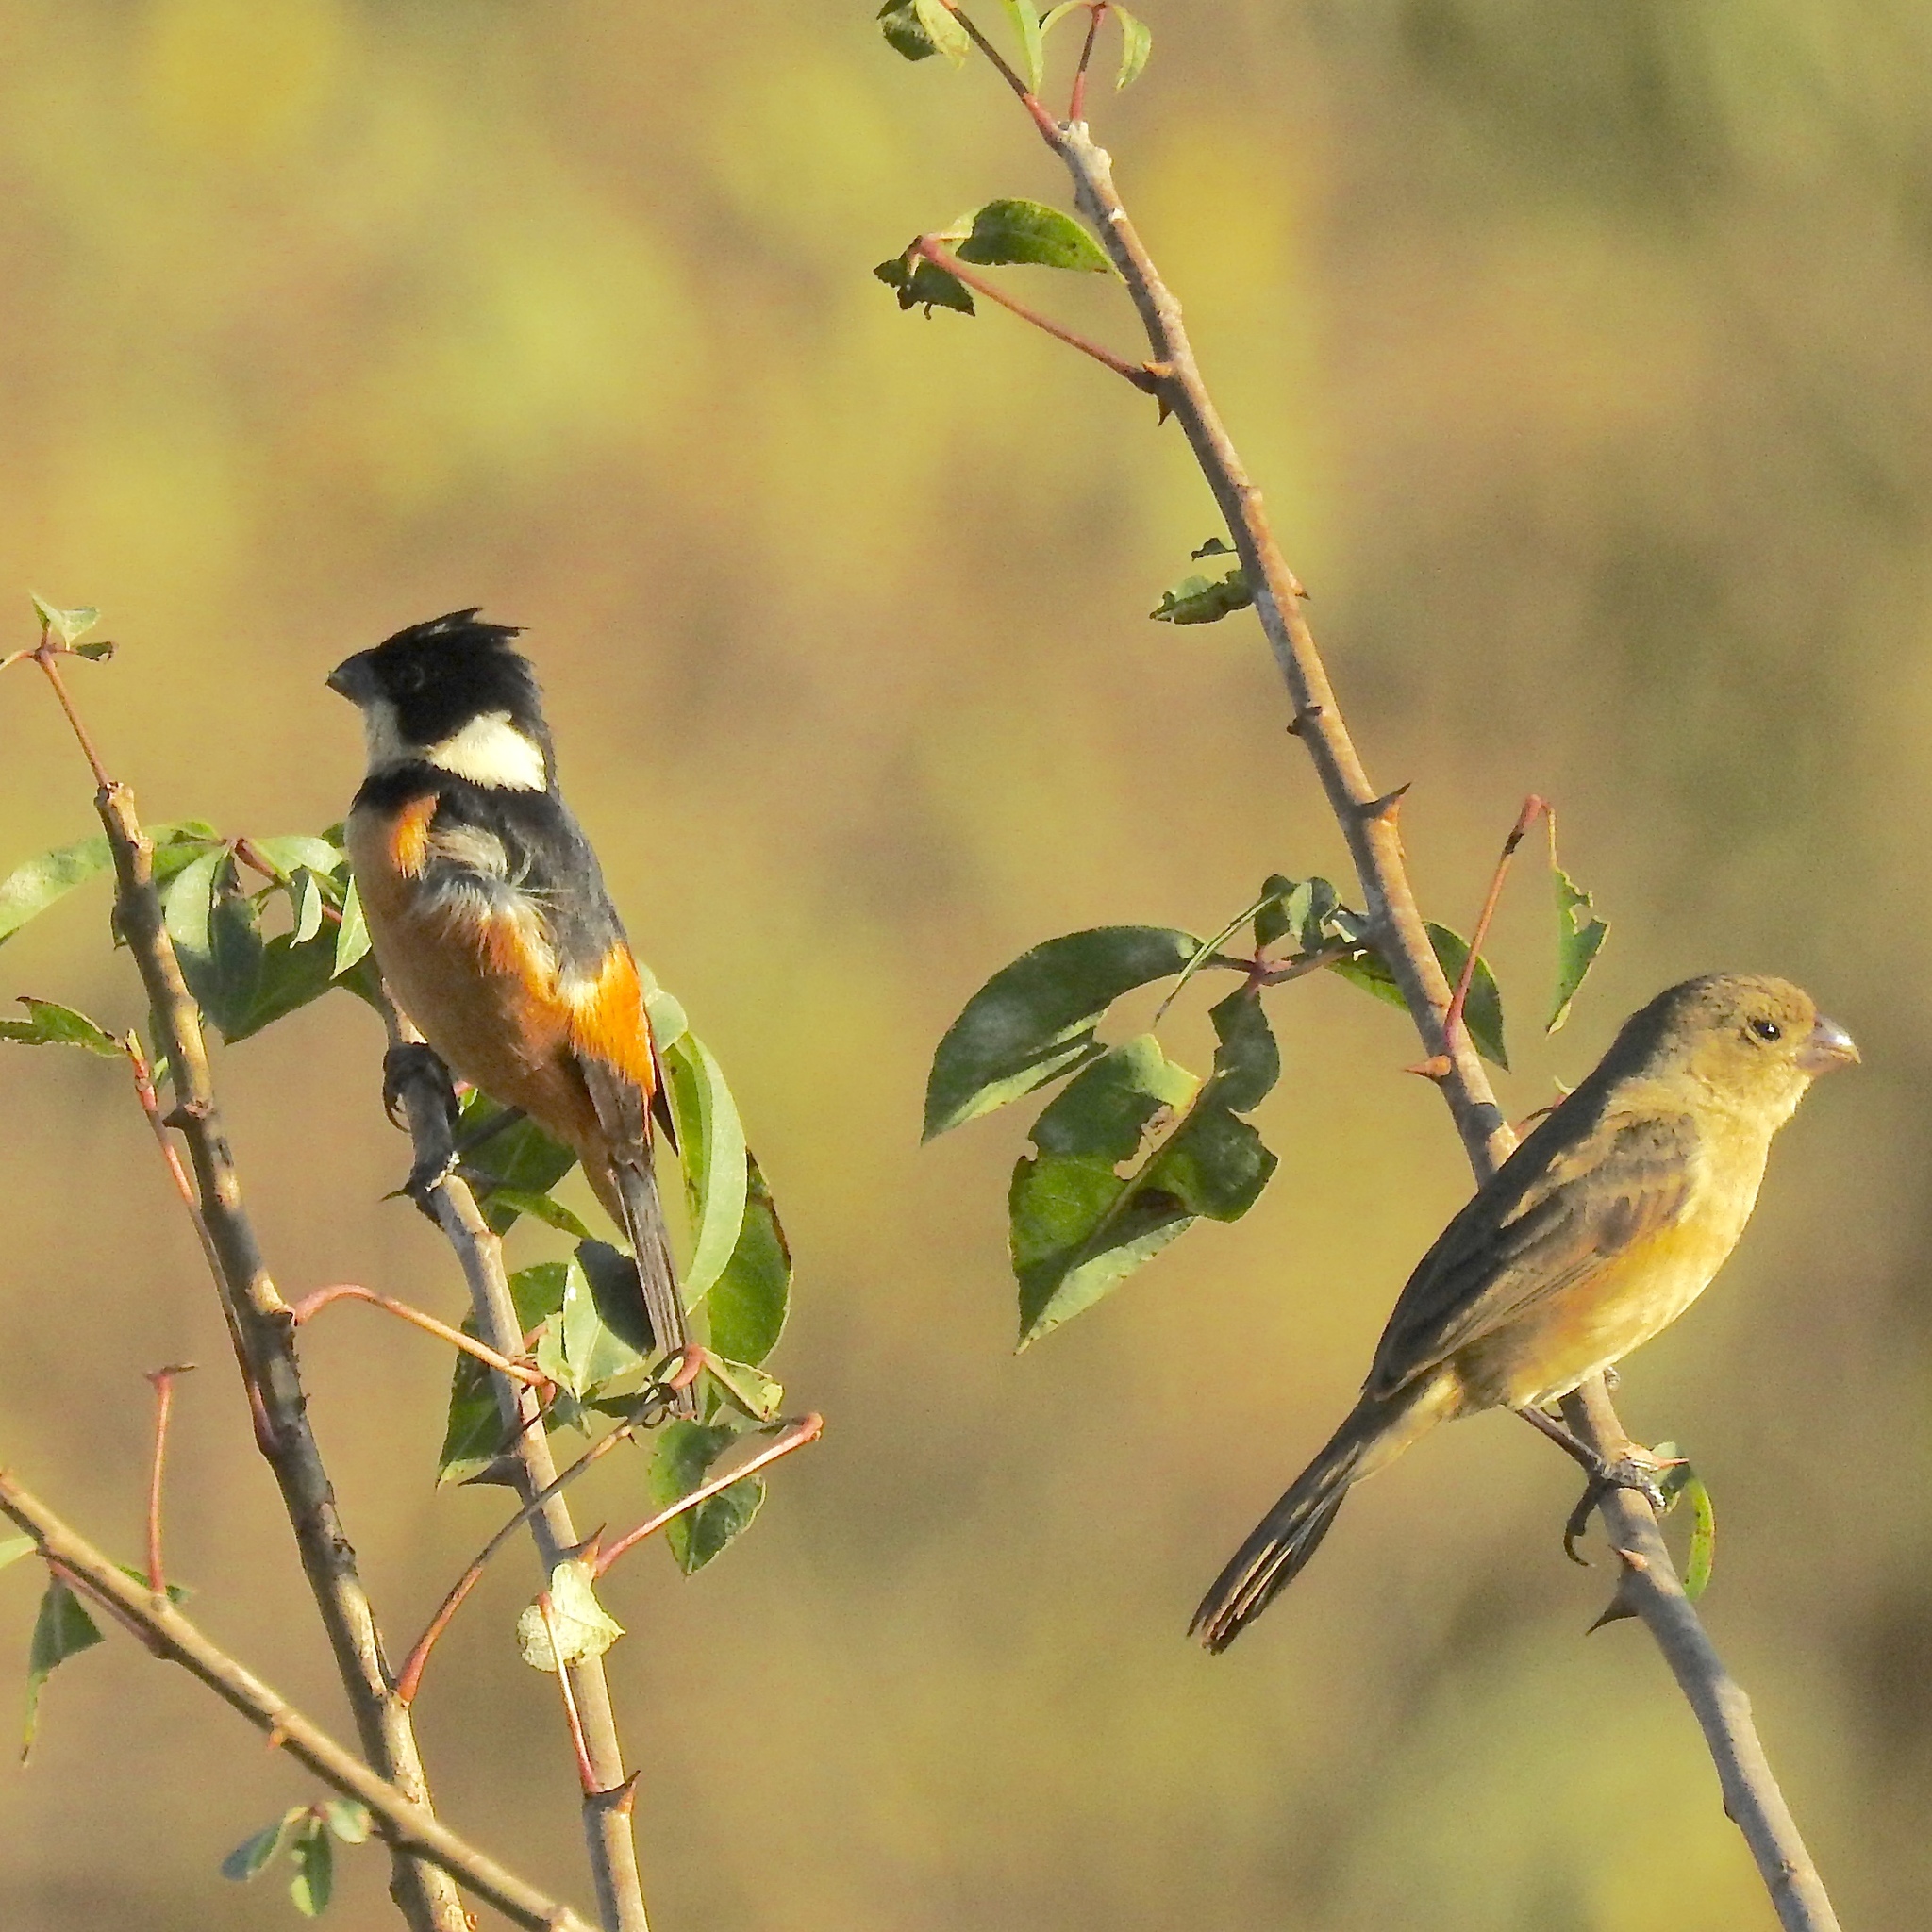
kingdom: Animalia
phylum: Chordata
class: Aves
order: Passeriformes
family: Thraupidae
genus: Sporophila
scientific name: Sporophila torqueola
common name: White-collared seedeater
